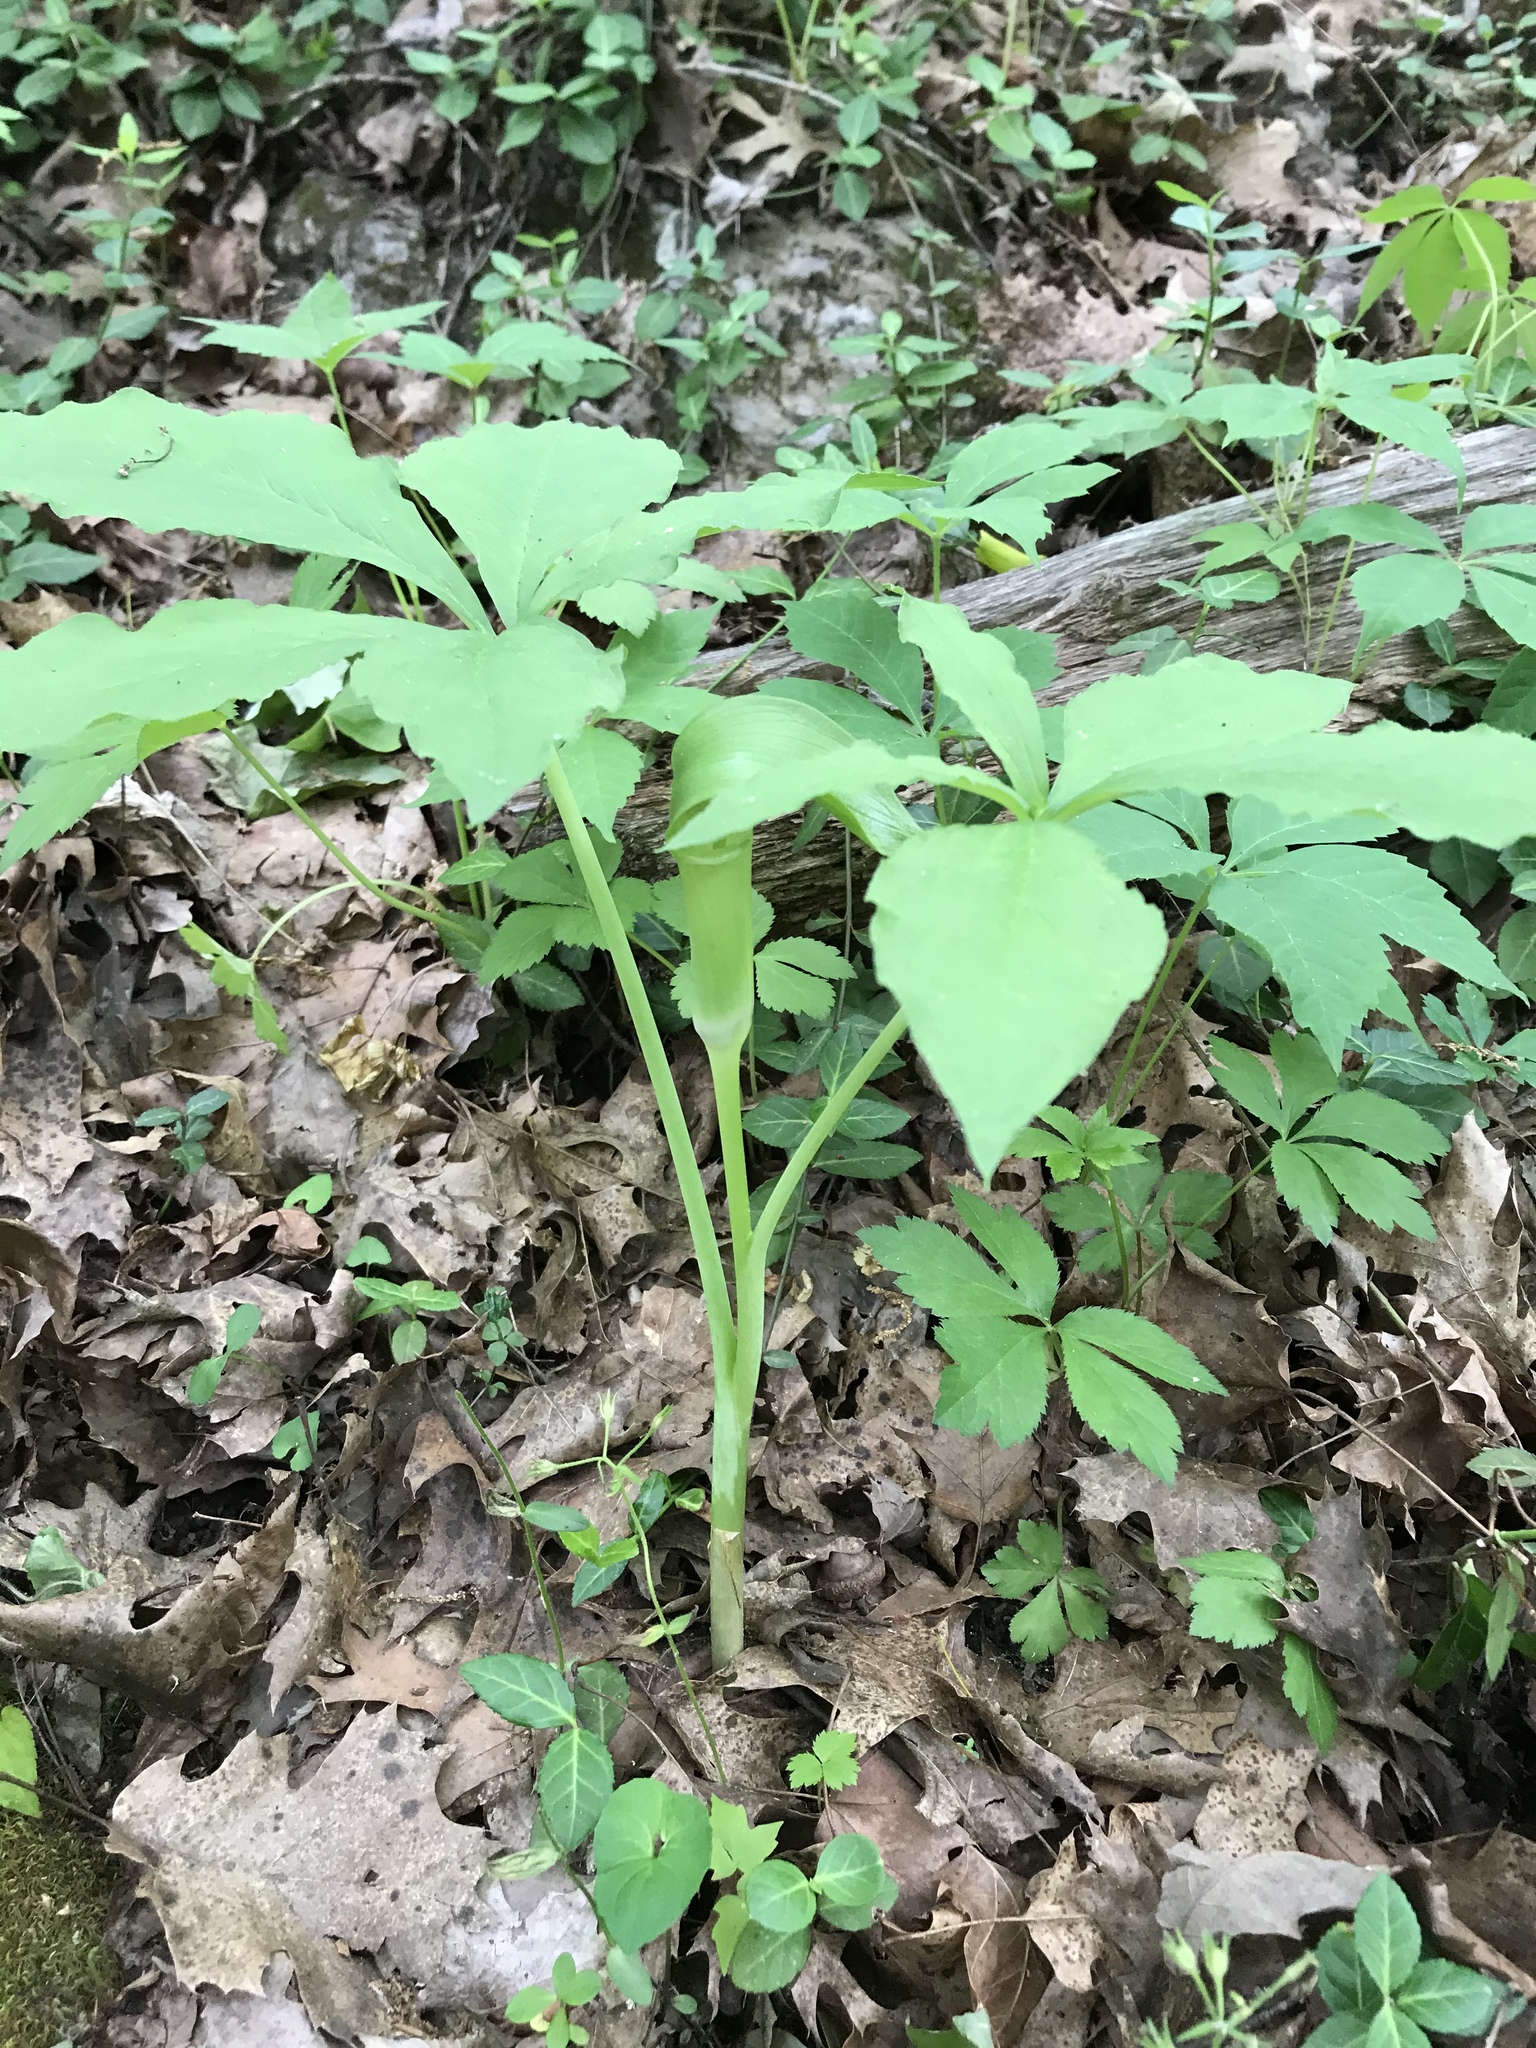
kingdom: Plantae
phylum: Tracheophyta
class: Liliopsida
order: Alismatales
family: Araceae
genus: Arisaema
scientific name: Arisaema quinatum
